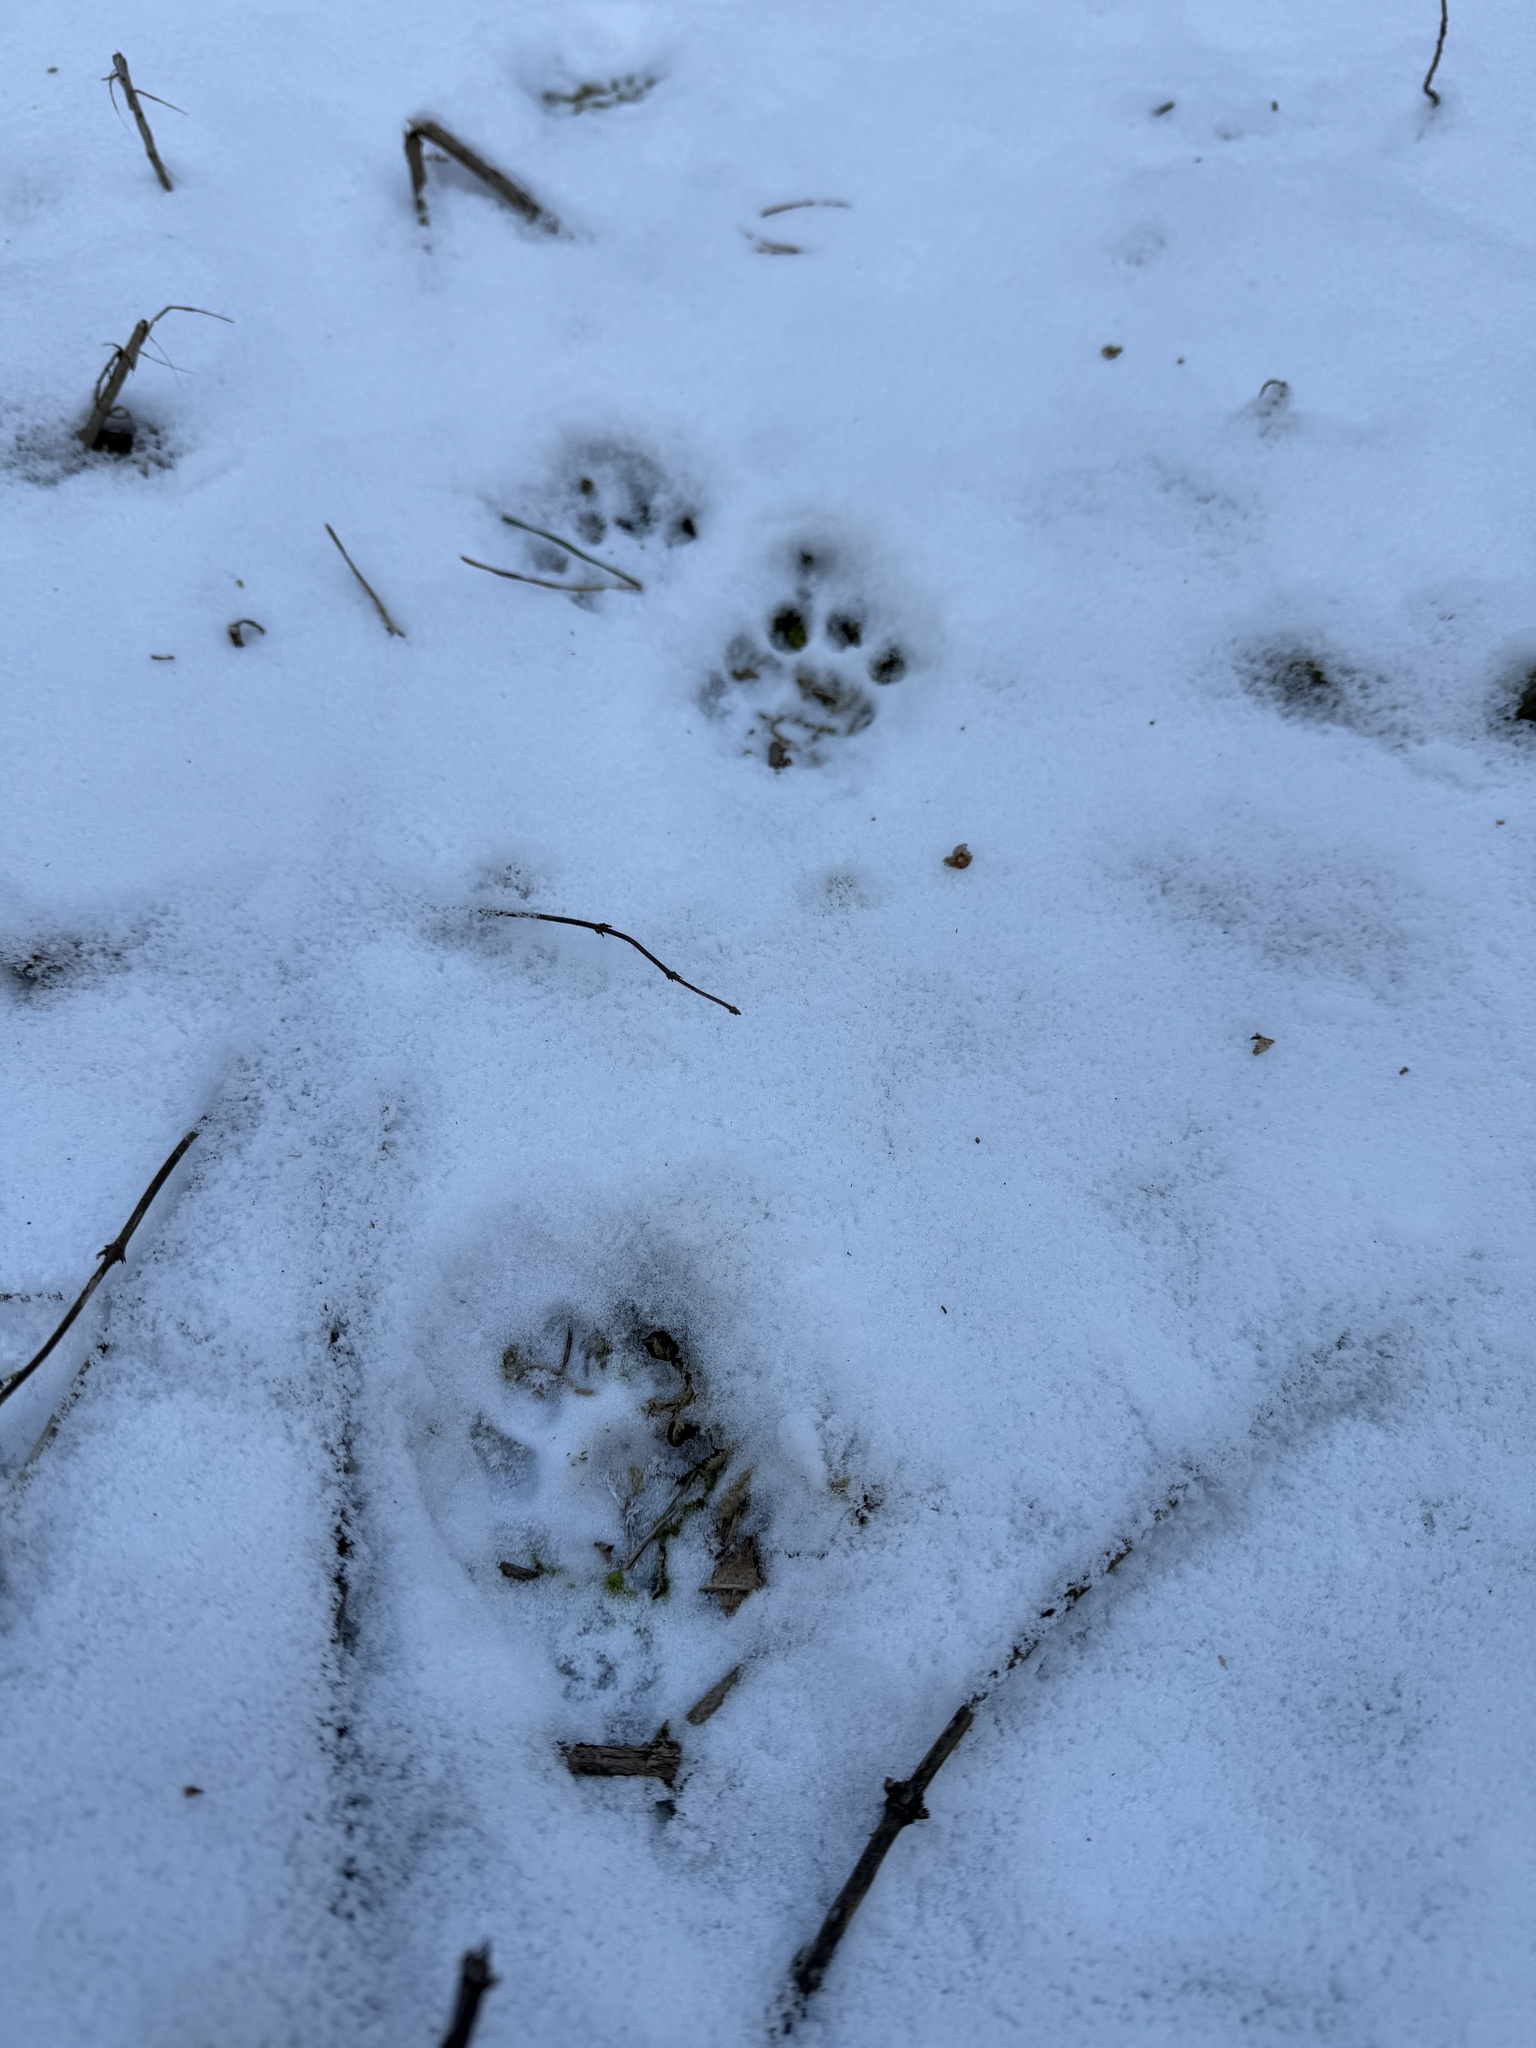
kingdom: Animalia
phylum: Chordata
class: Mammalia
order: Carnivora
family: Felidae
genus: Lynx
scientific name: Lynx rufus
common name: Bobcat
